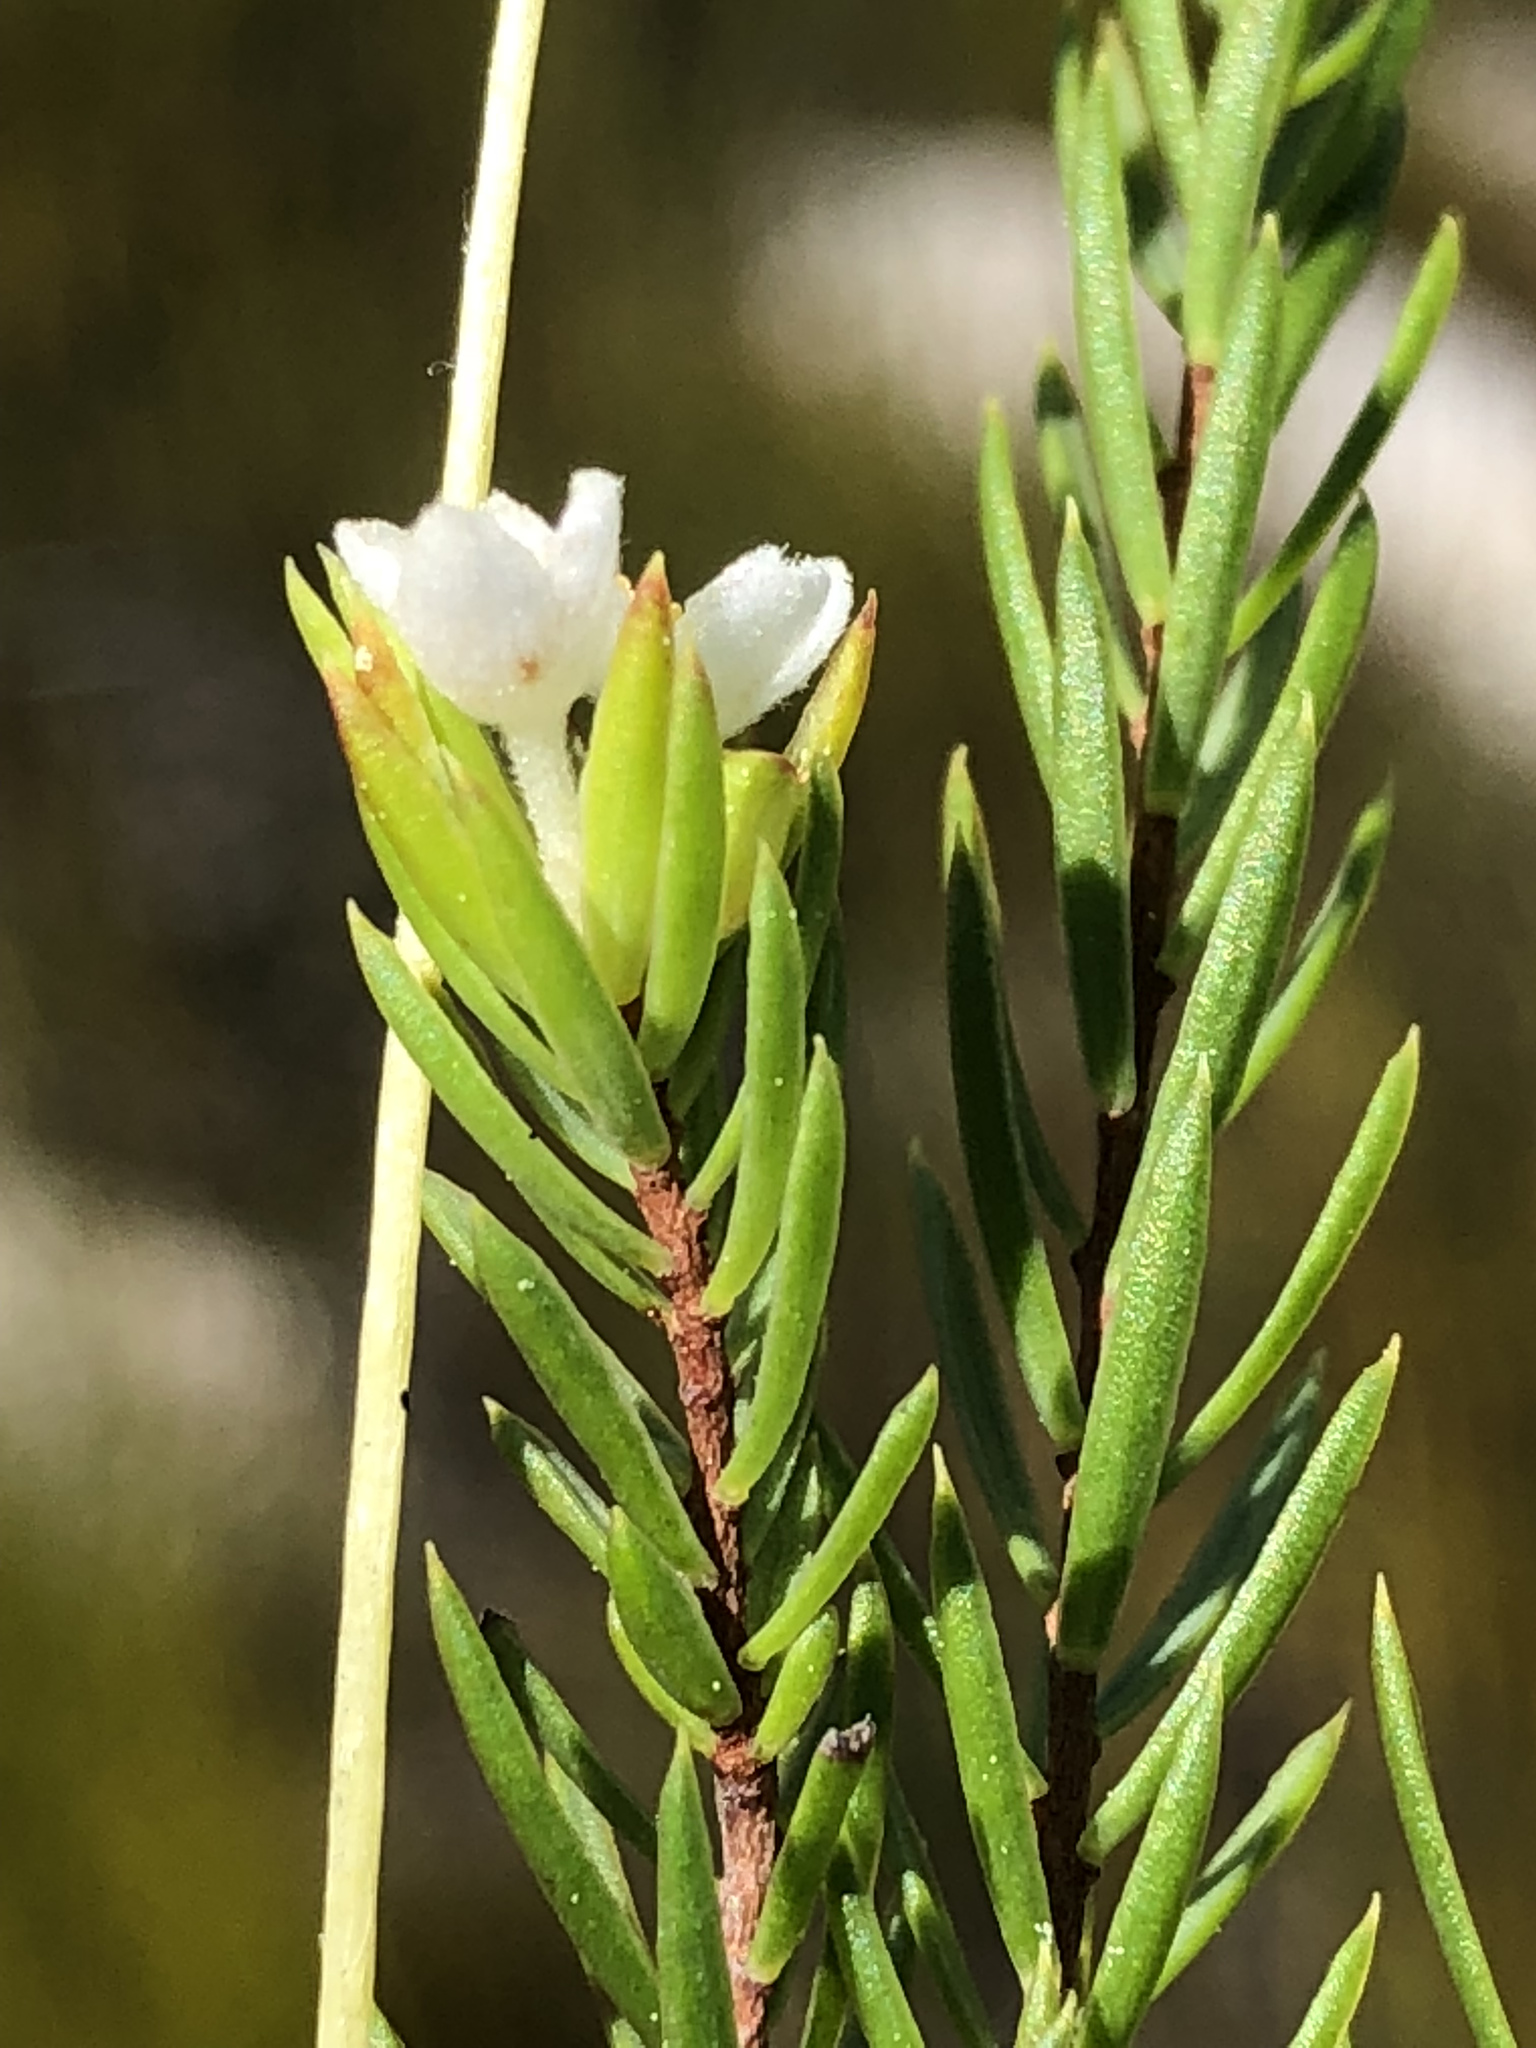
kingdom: Plantae
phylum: Tracheophyta
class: Magnoliopsida
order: Malvales
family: Thymelaeaceae
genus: Lachnaea
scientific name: Lachnaea diosmoides
